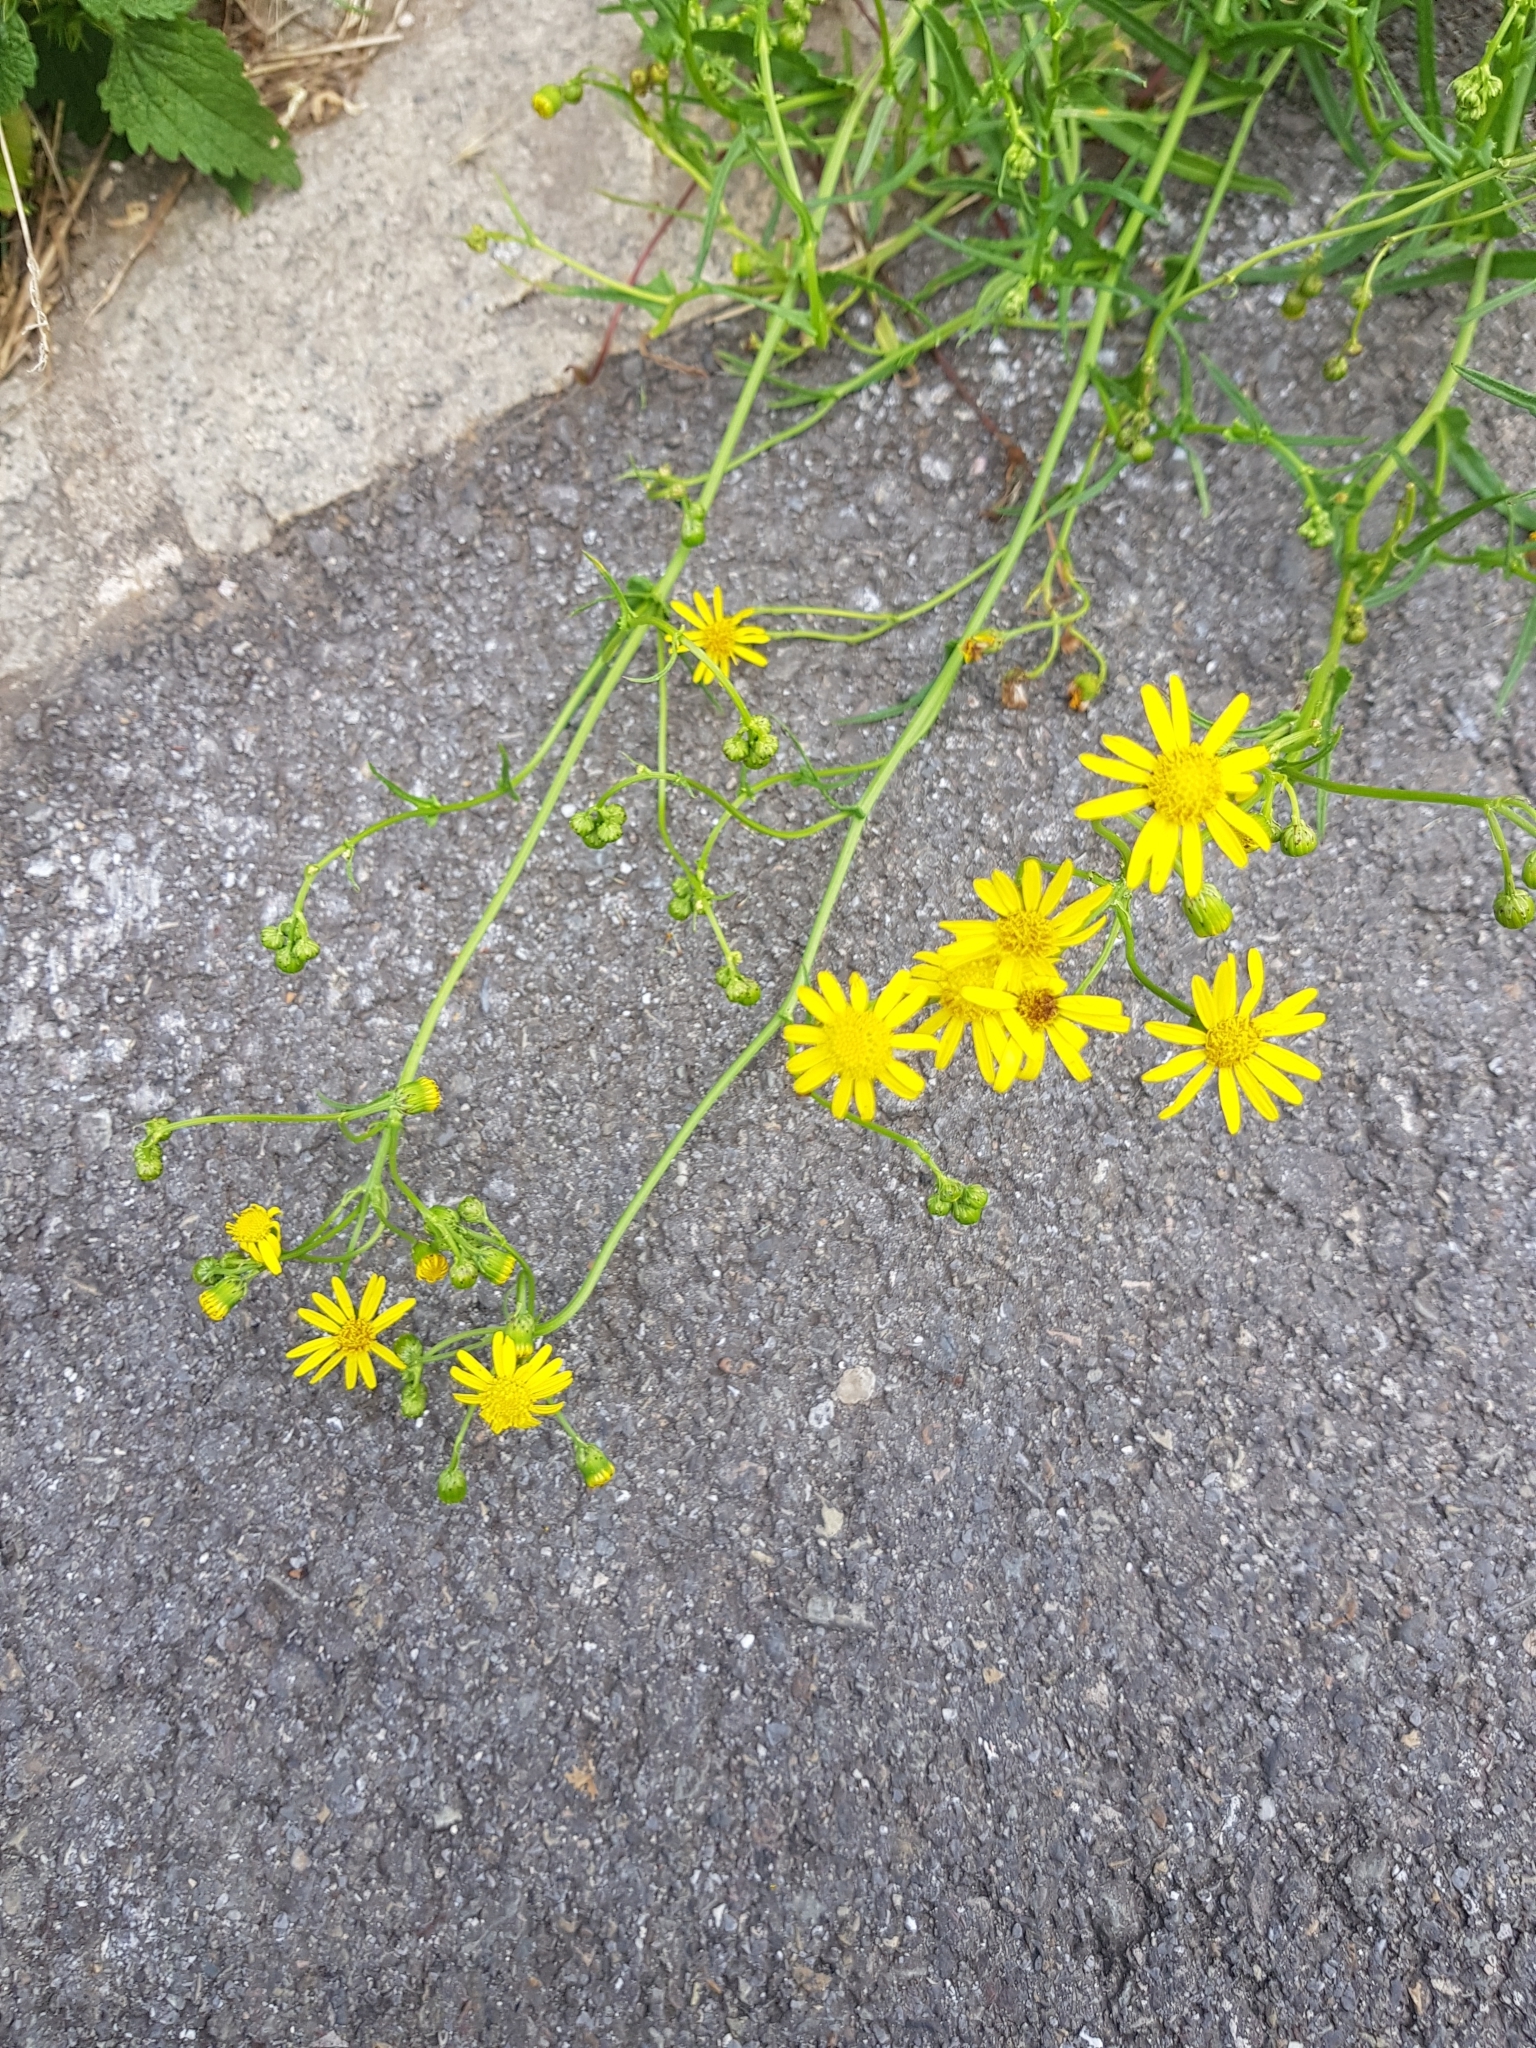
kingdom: Plantae
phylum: Tracheophyta
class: Magnoliopsida
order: Asterales
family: Asteraceae
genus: Senecio
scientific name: Senecio inaequidens
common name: Narrow-leaved ragwort
